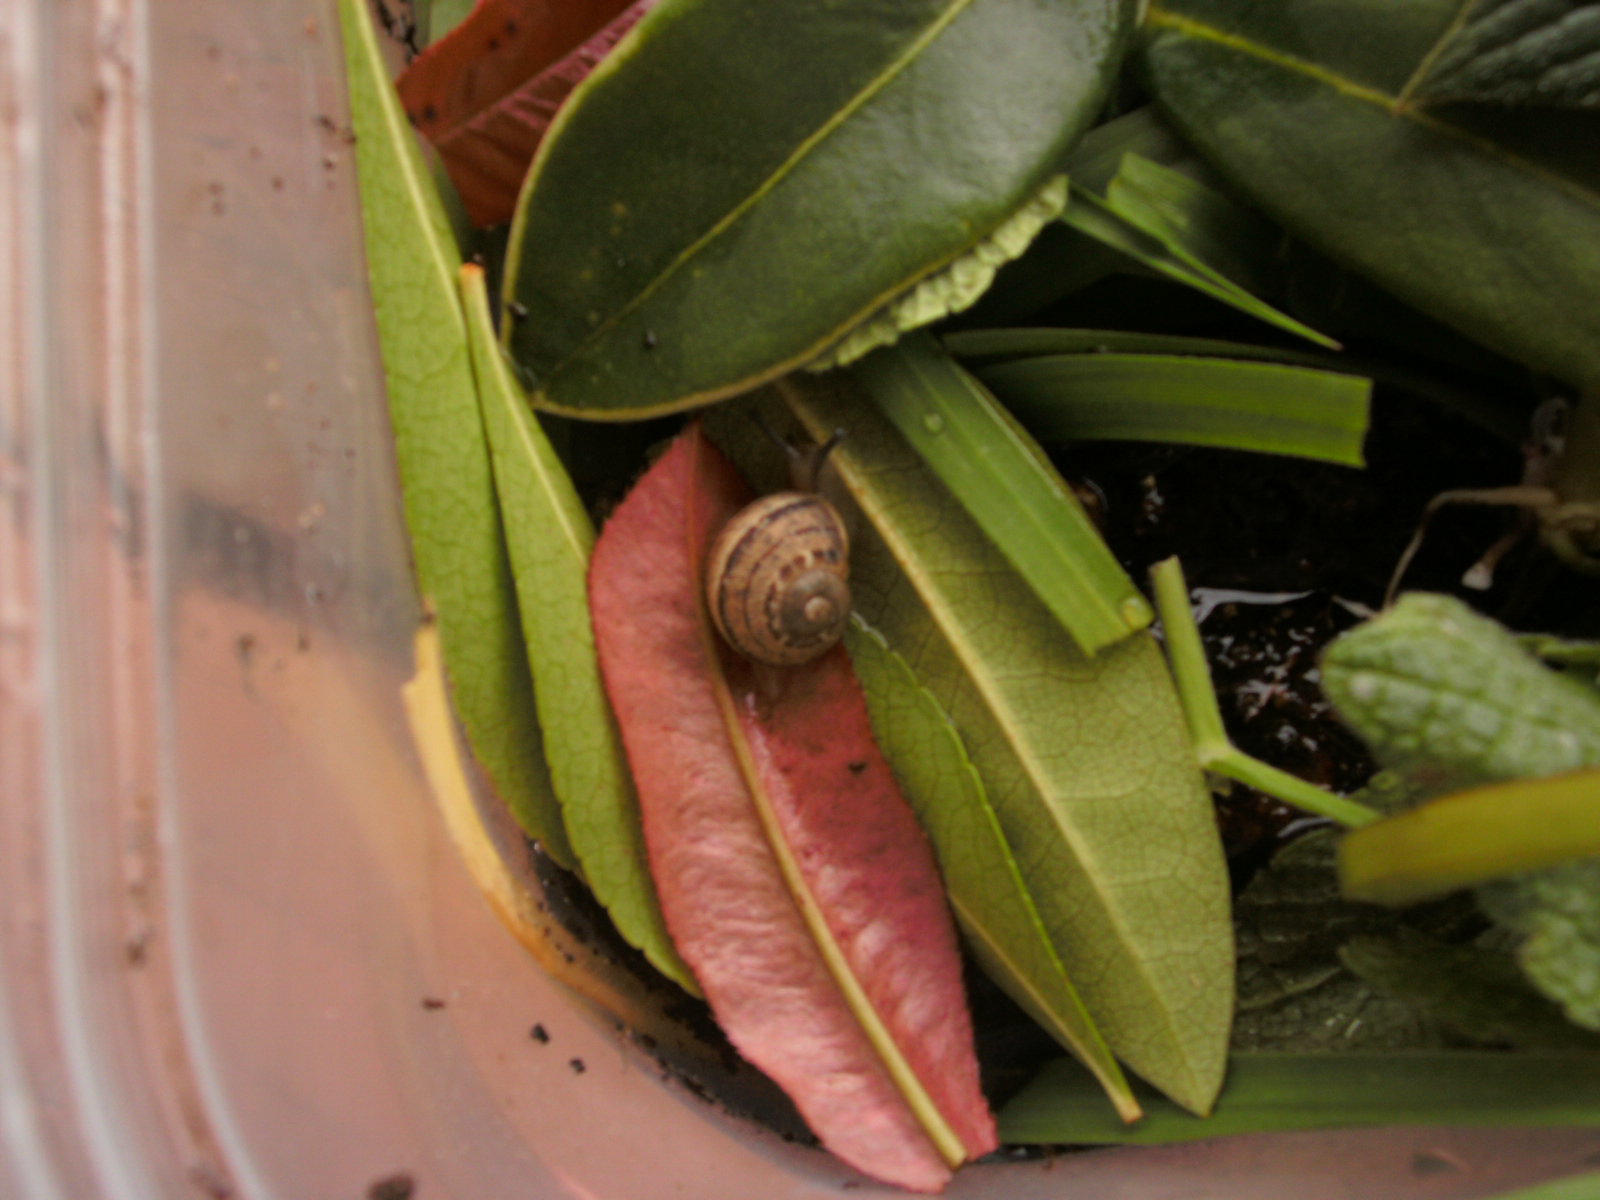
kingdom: Animalia
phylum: Mollusca
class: Gastropoda
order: Stylommatophora
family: Helicidae
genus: Cornu
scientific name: Cornu aspersum
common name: Brown garden snail
